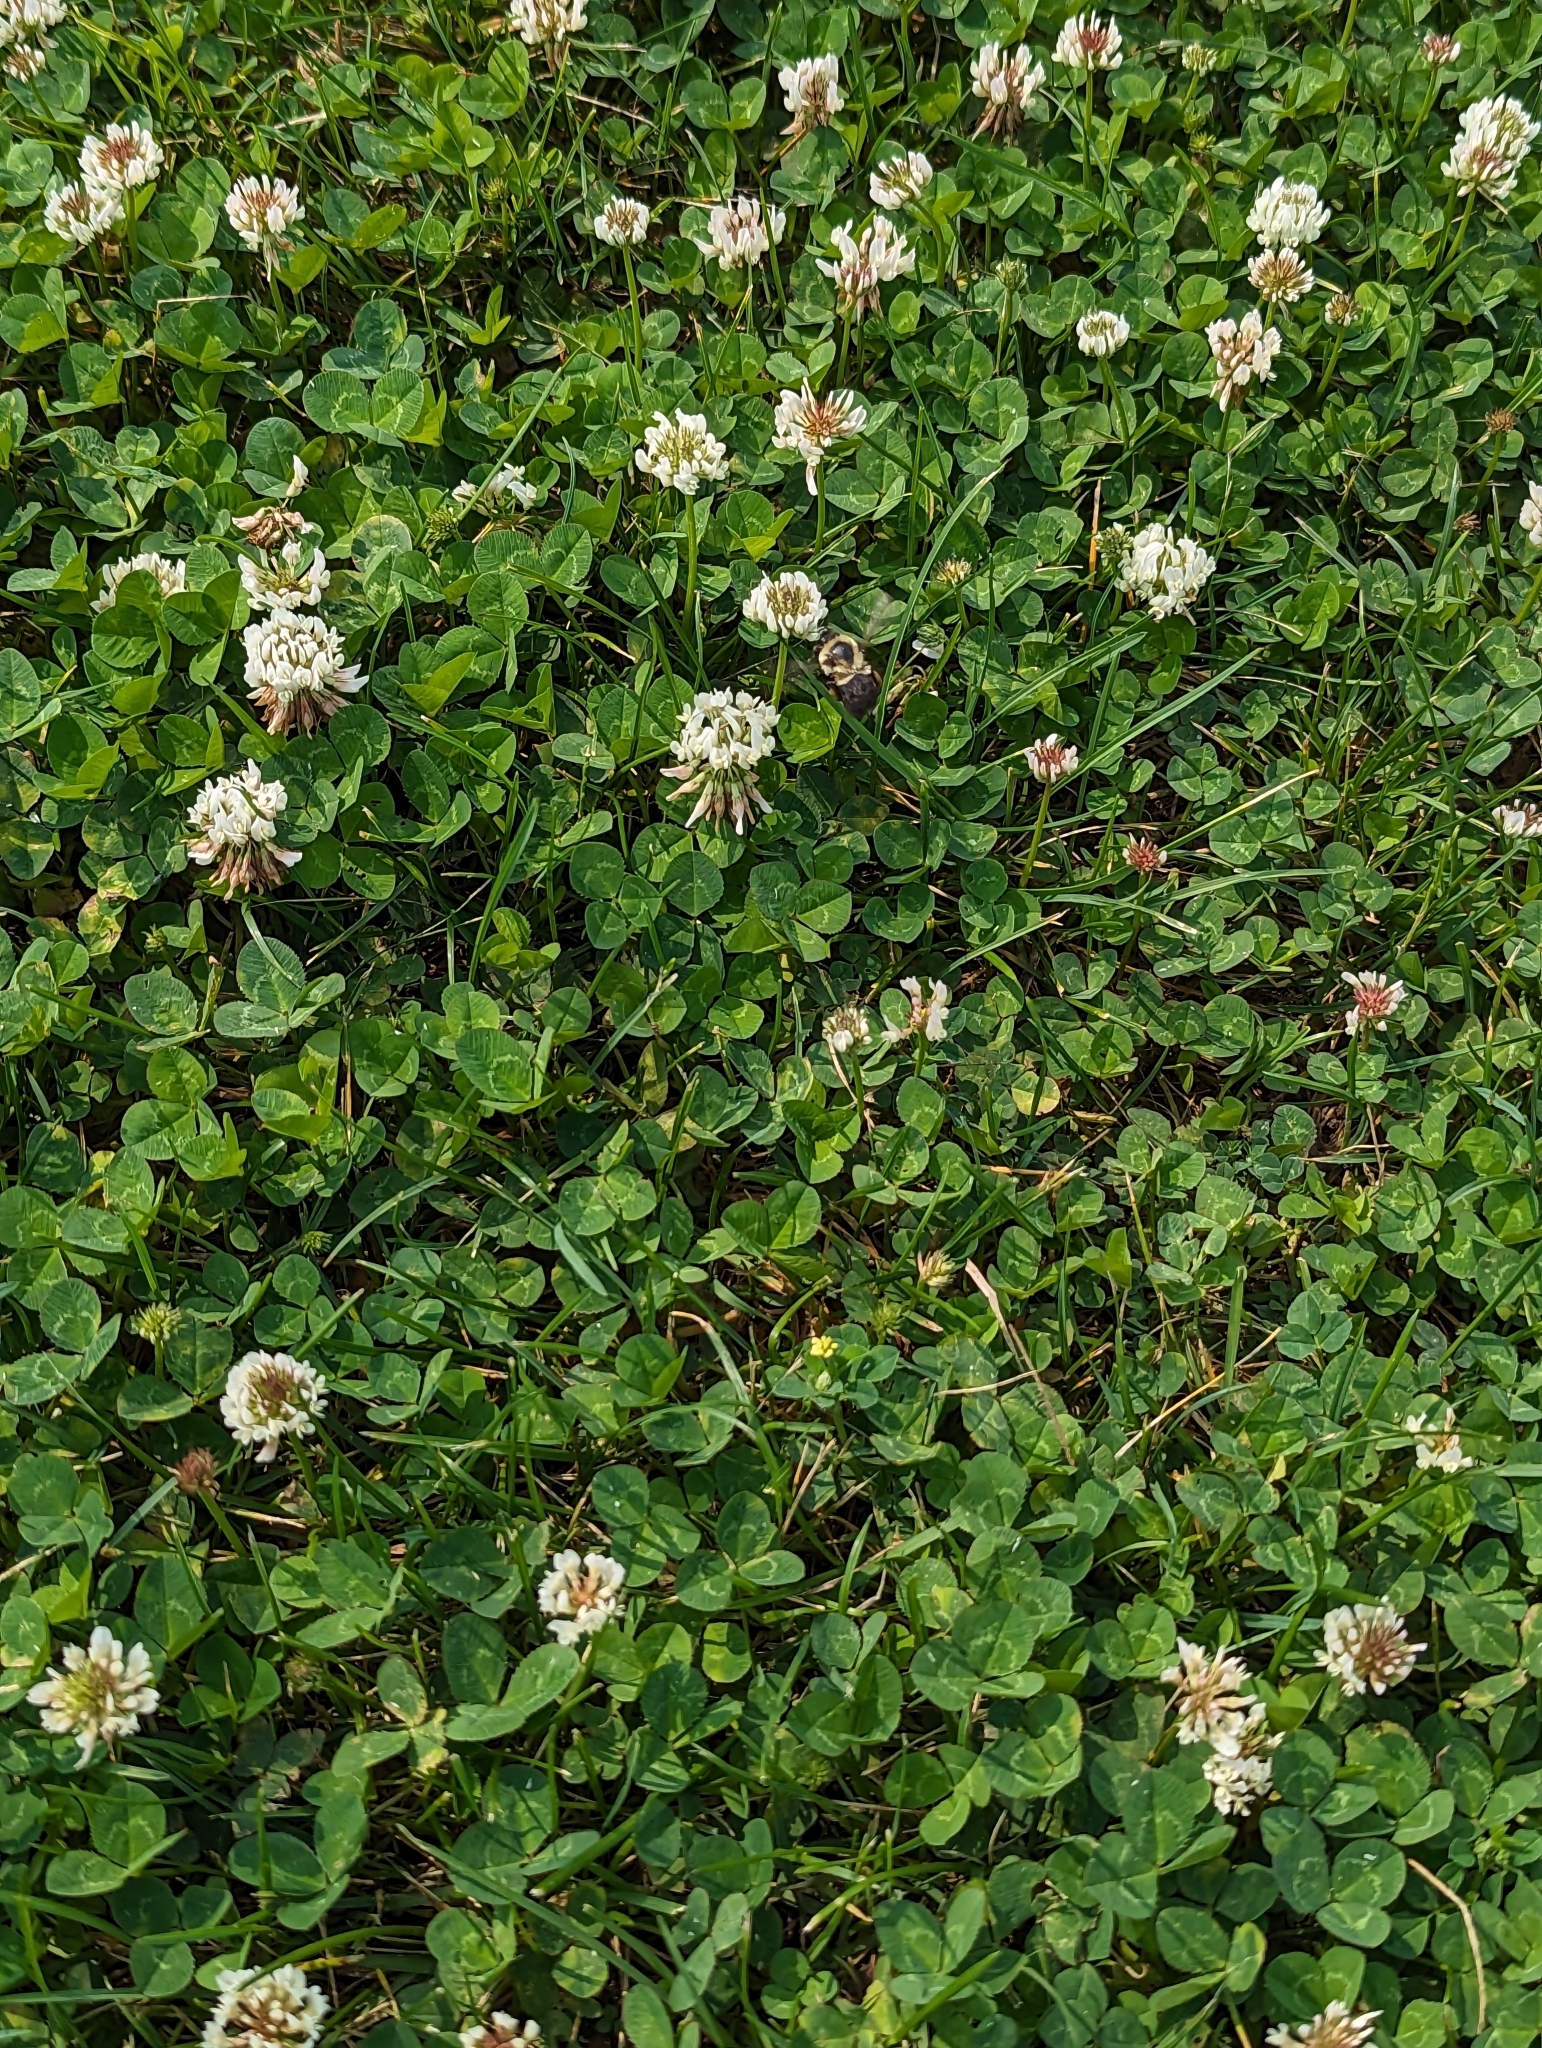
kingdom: Plantae
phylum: Tracheophyta
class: Magnoliopsida
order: Fabales
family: Fabaceae
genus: Trifolium
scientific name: Trifolium repens
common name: White clover
